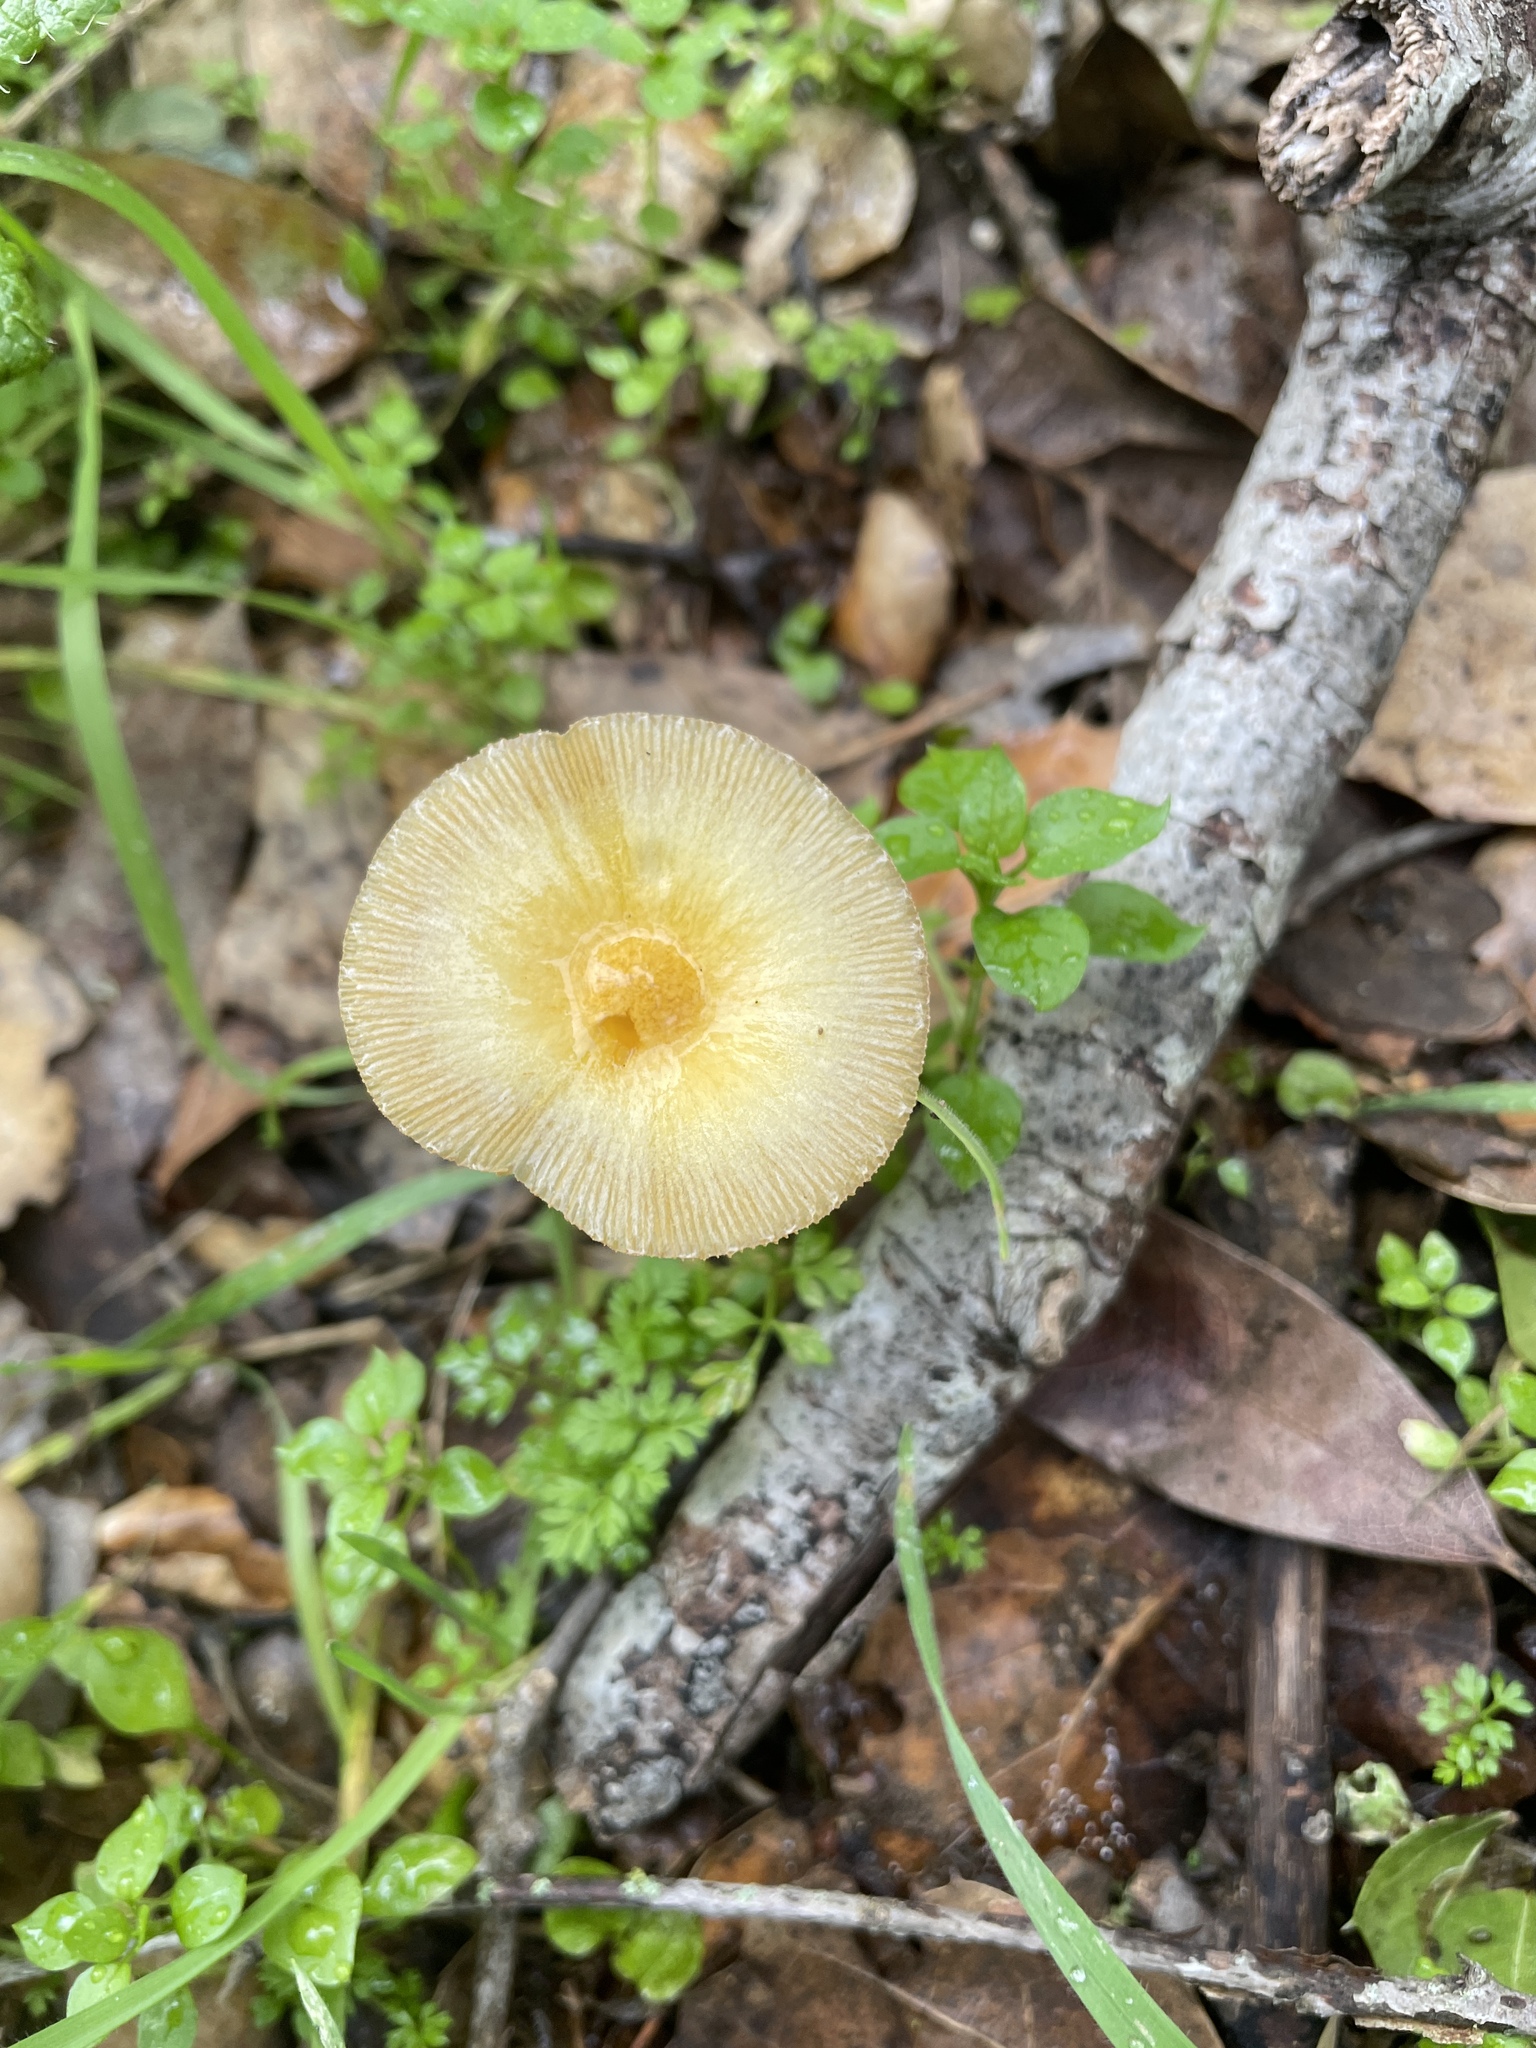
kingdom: Fungi
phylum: Basidiomycota
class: Agaricomycetes
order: Agaricales
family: Bolbitiaceae
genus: Bolbitius
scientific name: Bolbitius titubans
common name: Yellow fieldcap
